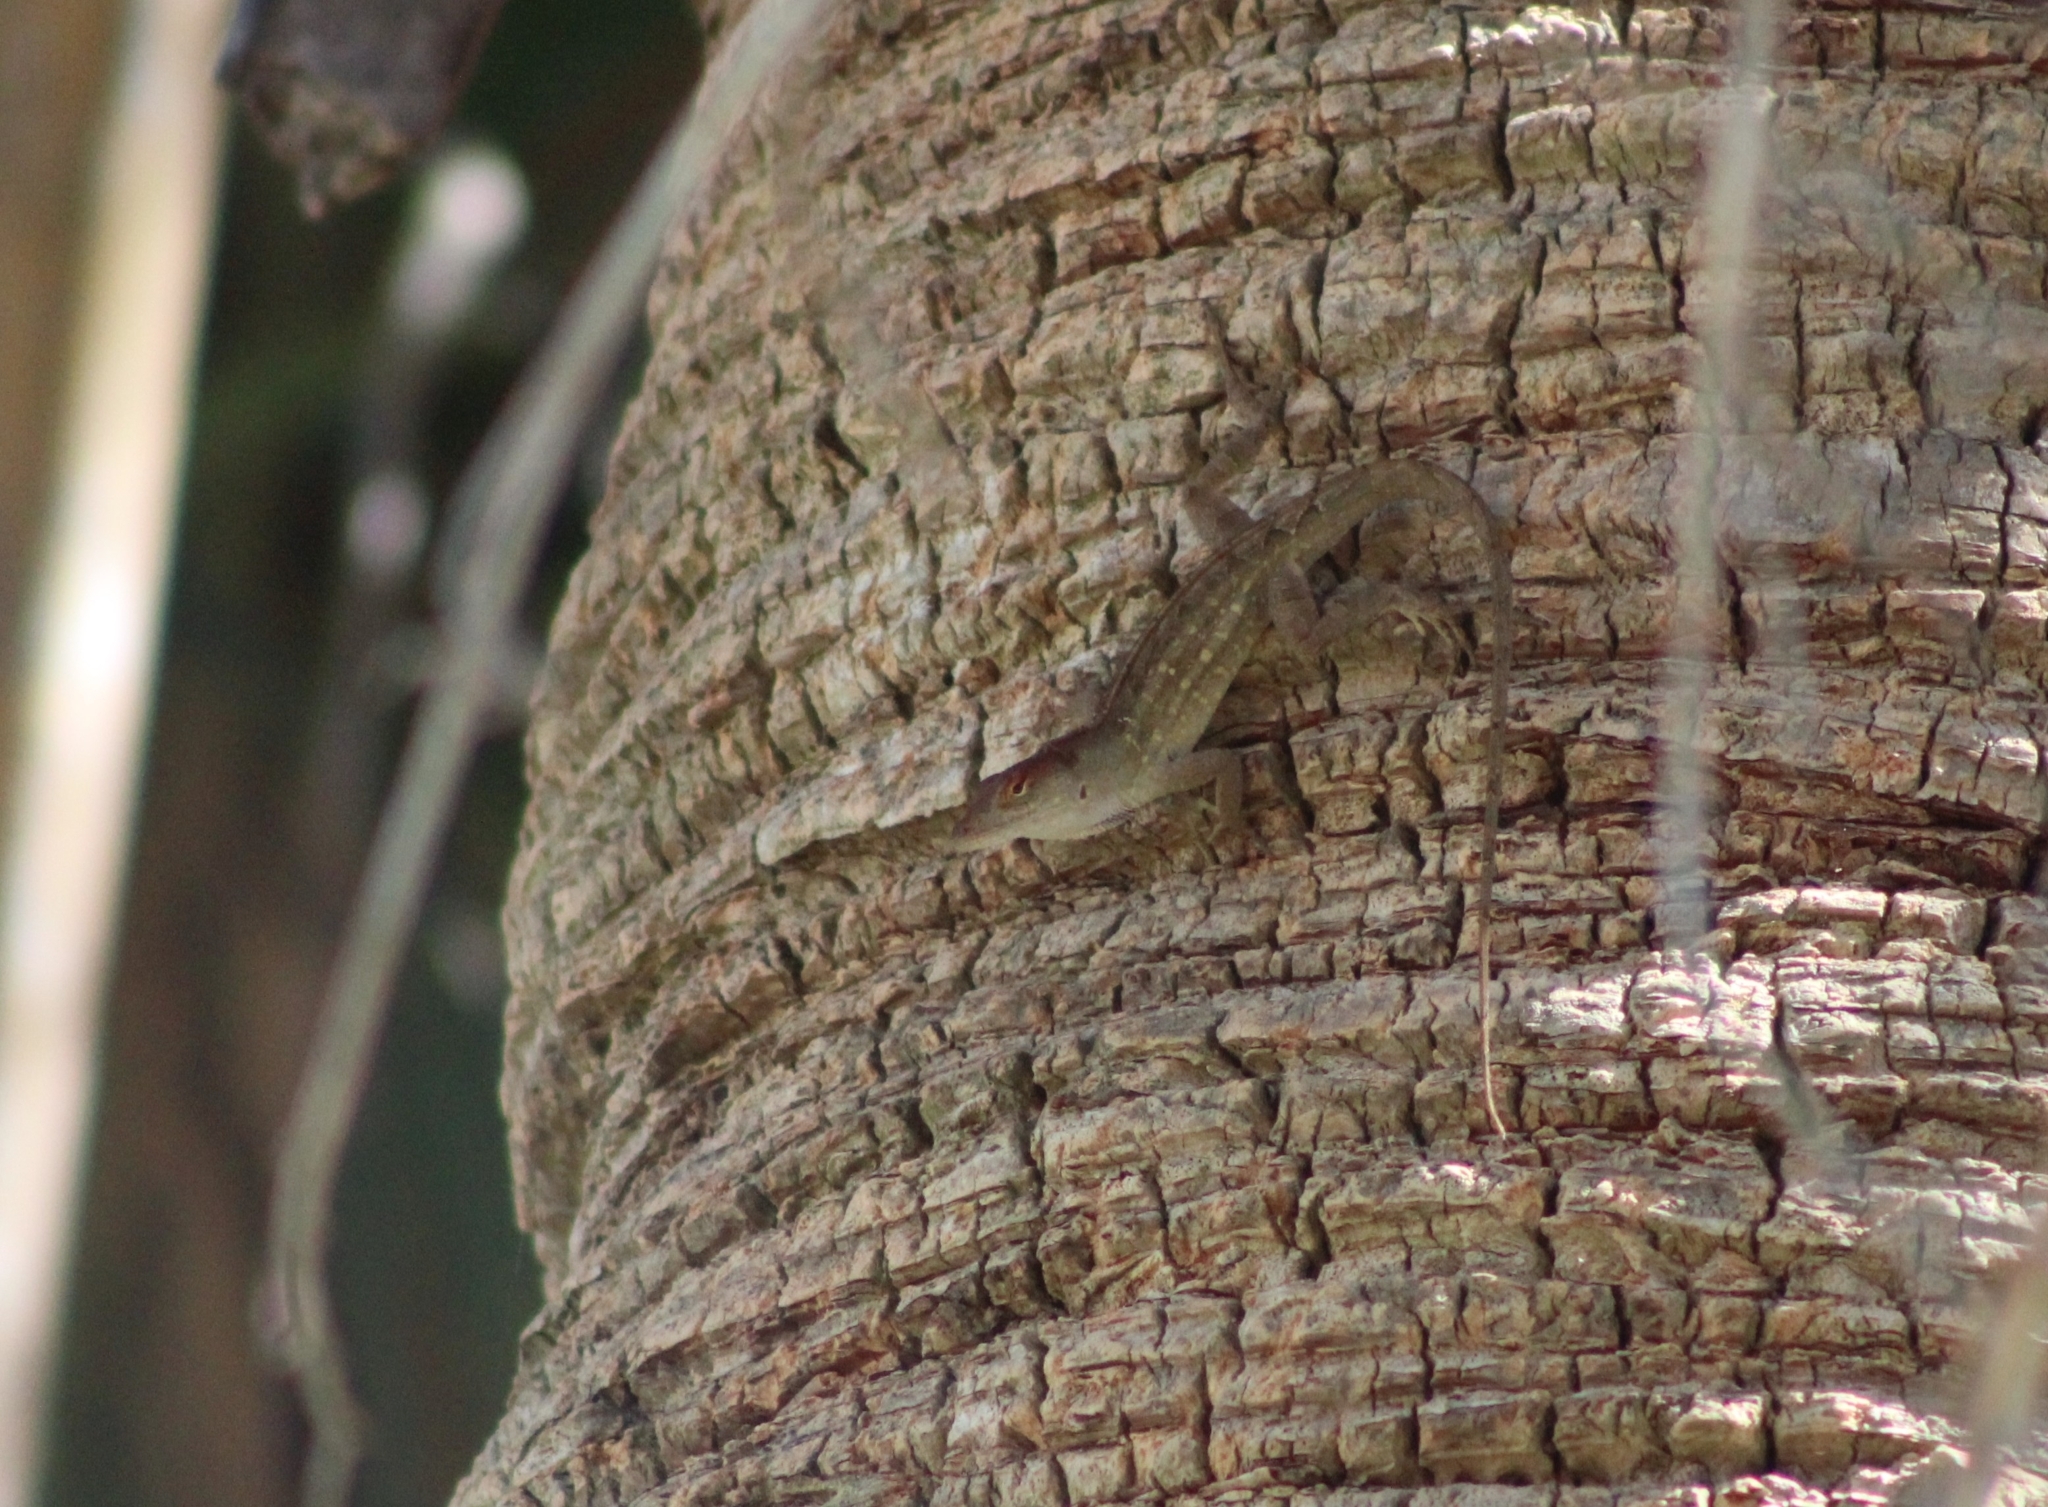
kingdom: Animalia
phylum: Chordata
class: Squamata
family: Dactyloidae
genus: Anolis
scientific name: Anolis sagrei
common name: Brown anole
